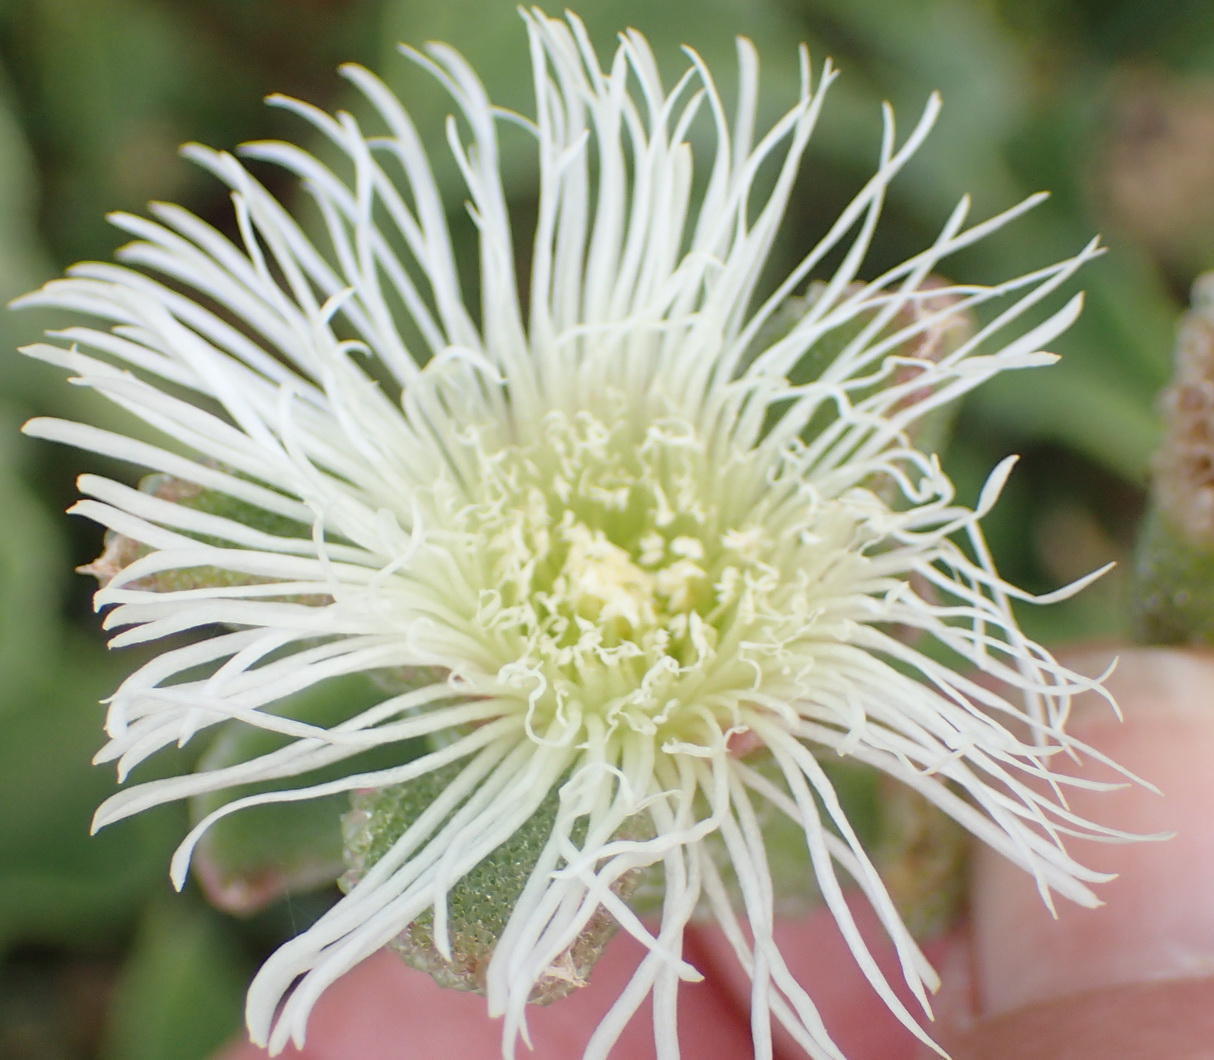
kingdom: Plantae
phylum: Tracheophyta
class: Magnoliopsida
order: Caryophyllales
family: Aizoaceae
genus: Mesembryanthemum
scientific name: Mesembryanthemum crystallinum
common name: Common iceplant
